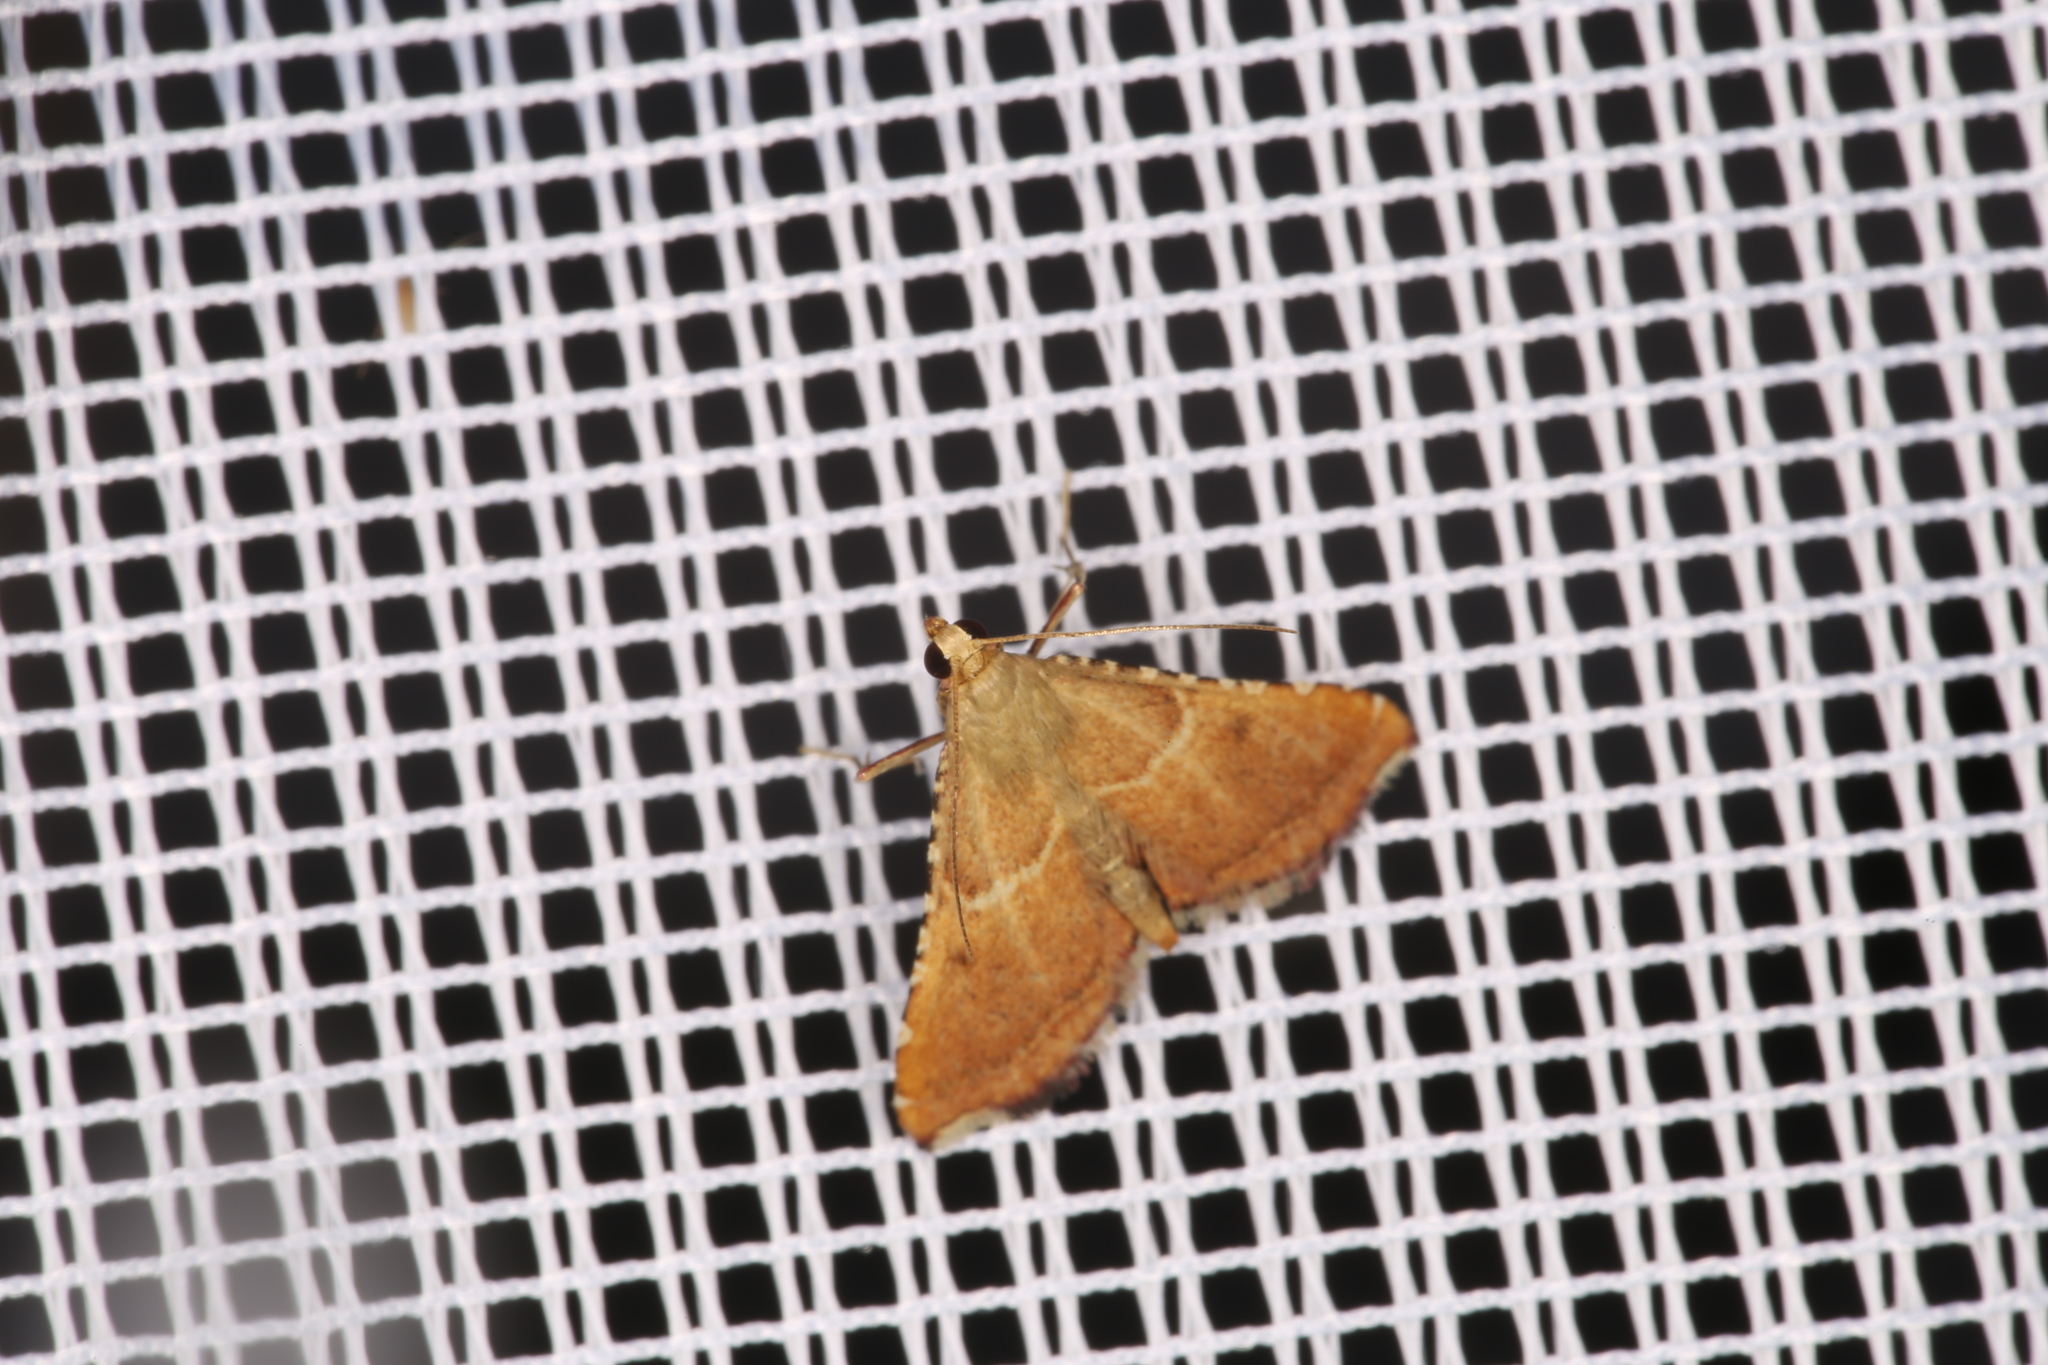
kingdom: Animalia
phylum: Arthropoda
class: Insecta
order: Lepidoptera
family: Pyralidae
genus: Endotricha
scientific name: Endotricha flammealis
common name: Rosy tabby
